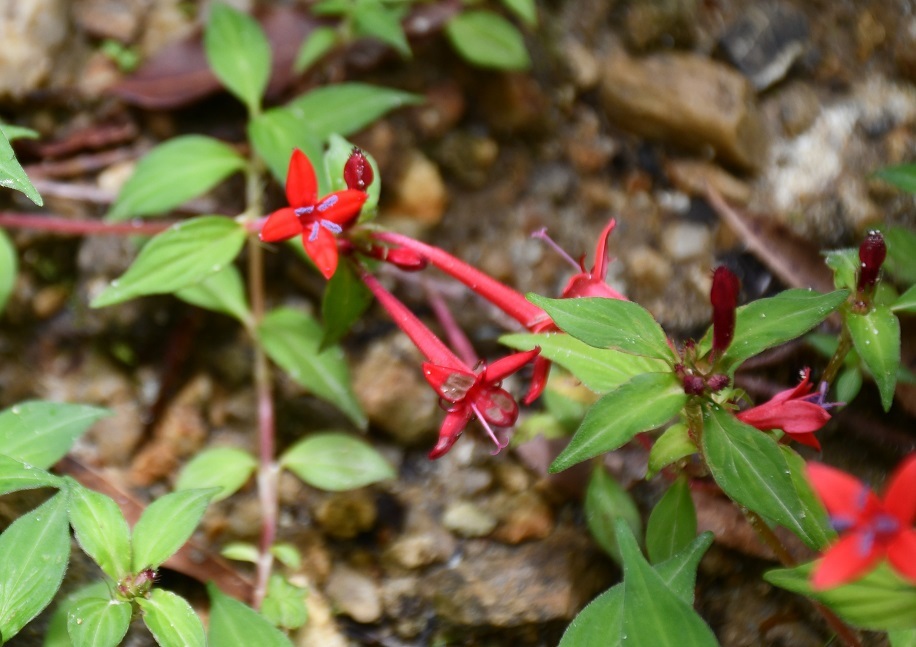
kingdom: Plantae
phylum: Tracheophyta
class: Magnoliopsida
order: Gentianales
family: Rubiaceae
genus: Crusea
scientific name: Crusea coccinea
